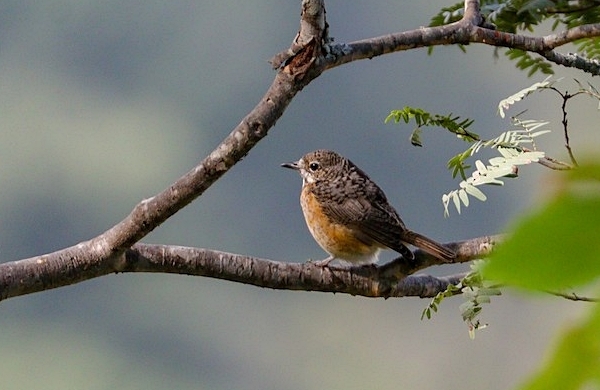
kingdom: Animalia
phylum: Chordata
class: Aves
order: Passeriformes
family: Muscicapidae
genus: Monticola
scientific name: Monticola angolensis
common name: Miombo rock thrush
